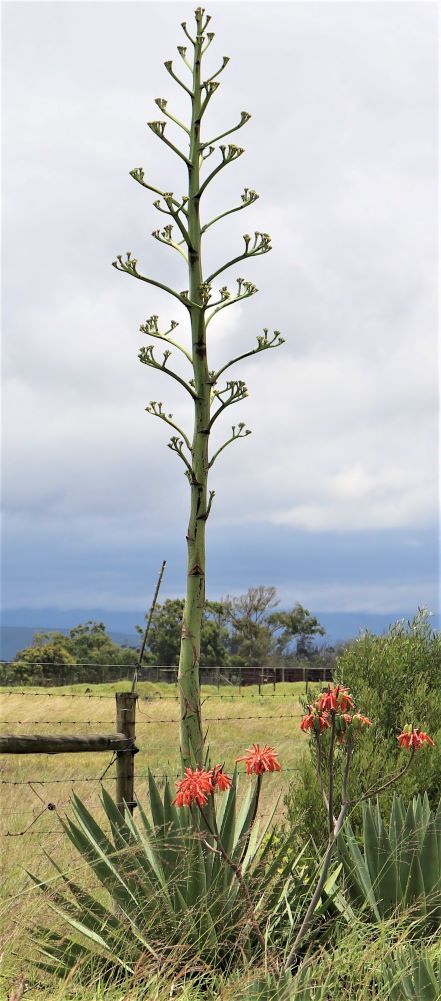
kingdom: Plantae
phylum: Tracheophyta
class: Liliopsida
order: Asparagales
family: Asparagaceae
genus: Agave
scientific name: Agave sisalana
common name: Sisal hemp
